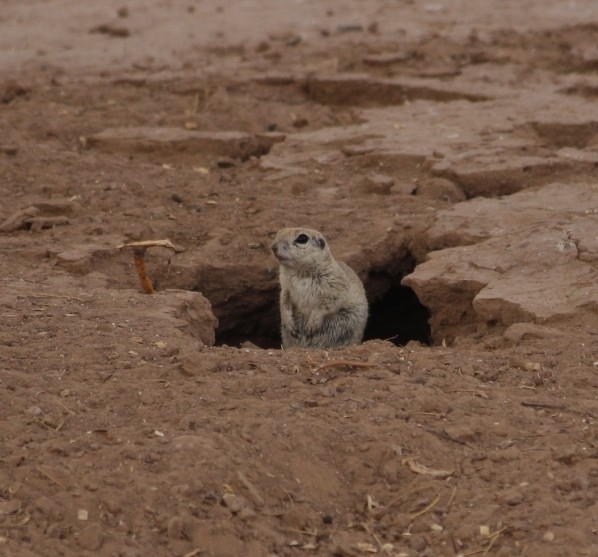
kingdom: Animalia
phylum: Chordata
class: Mammalia
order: Rodentia
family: Sciuridae
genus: Xerospermophilus
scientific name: Xerospermophilus tereticaudus
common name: Round-tailed ground squirrel
